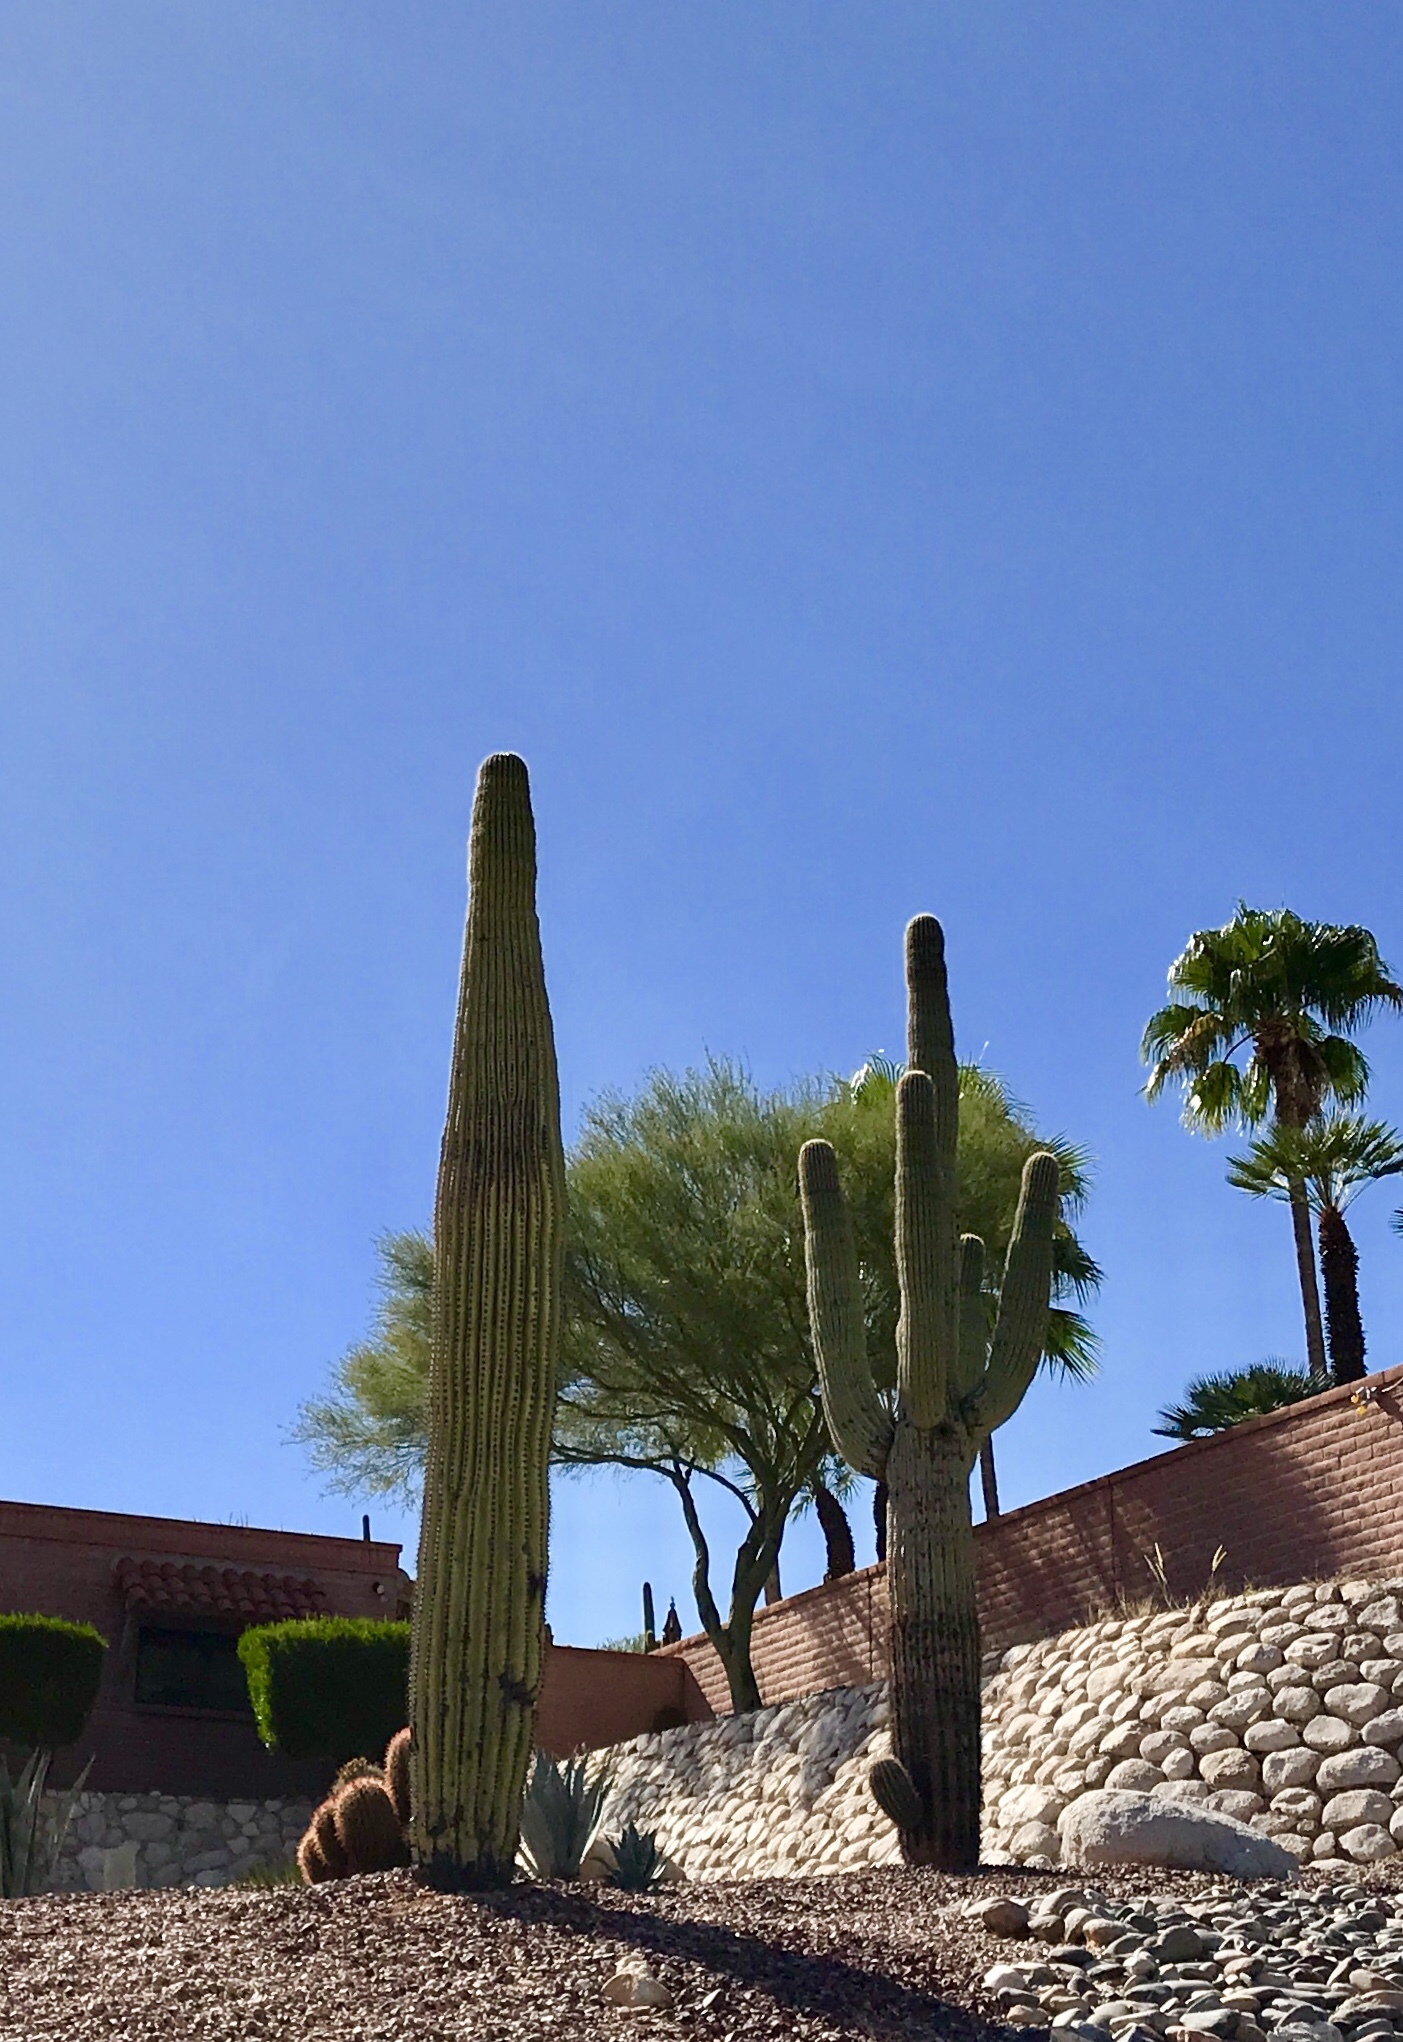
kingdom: Plantae
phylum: Tracheophyta
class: Magnoliopsida
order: Caryophyllales
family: Cactaceae
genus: Carnegiea
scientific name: Carnegiea gigantea
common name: Saguaro
